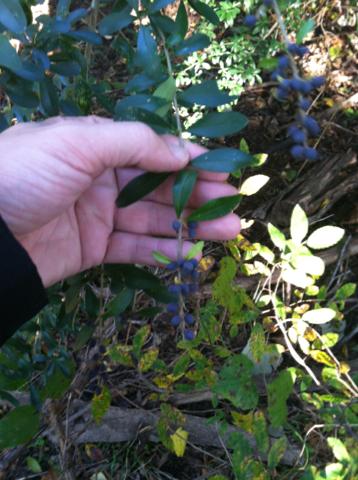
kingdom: Plantae
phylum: Tracheophyta
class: Magnoliopsida
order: Lamiales
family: Oleaceae
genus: Ligustrum
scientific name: Ligustrum quihoui
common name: Waxyleaf privet
